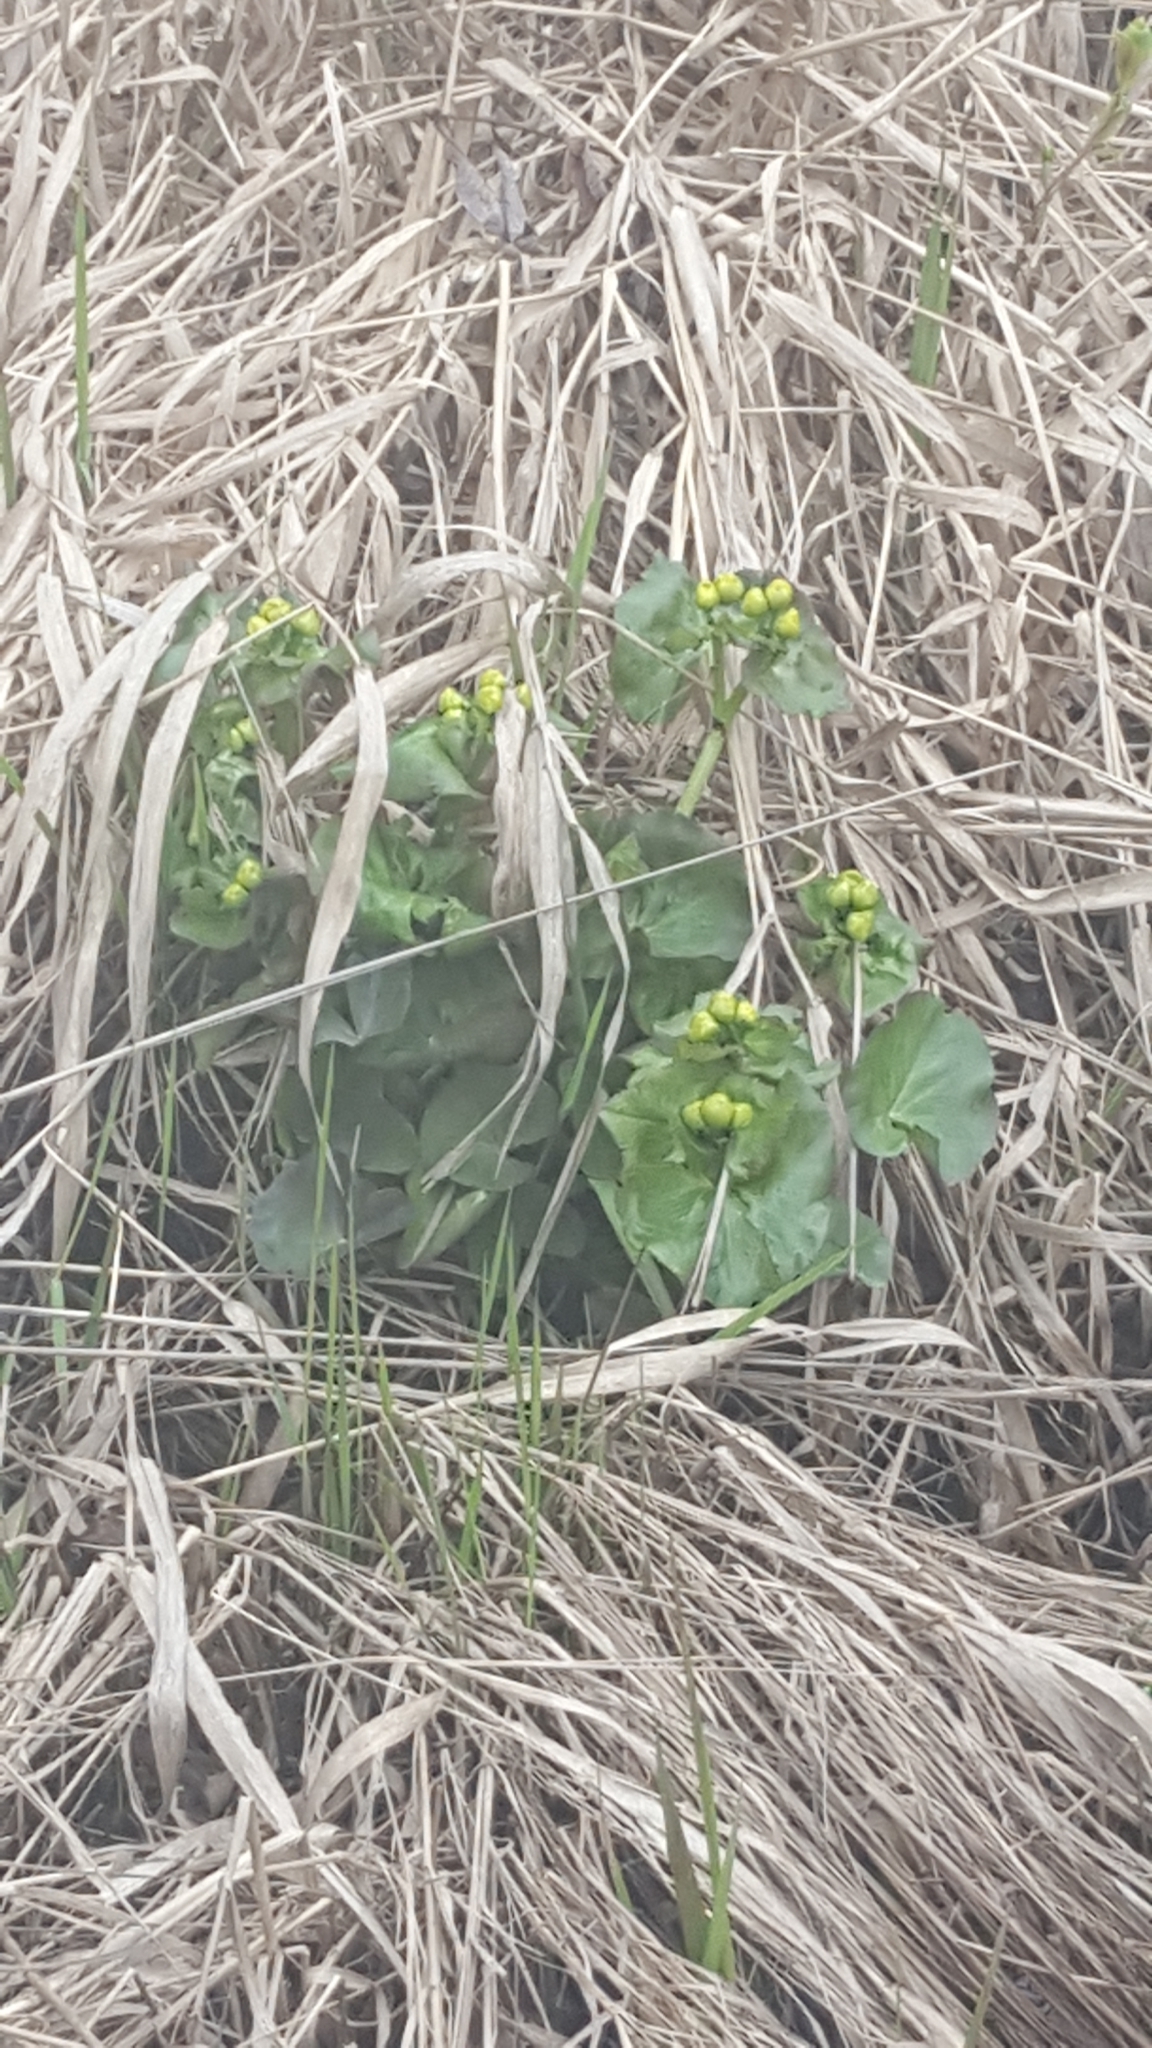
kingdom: Plantae
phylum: Tracheophyta
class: Magnoliopsida
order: Ranunculales
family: Ranunculaceae
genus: Caltha
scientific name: Caltha palustris
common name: Marsh marigold
